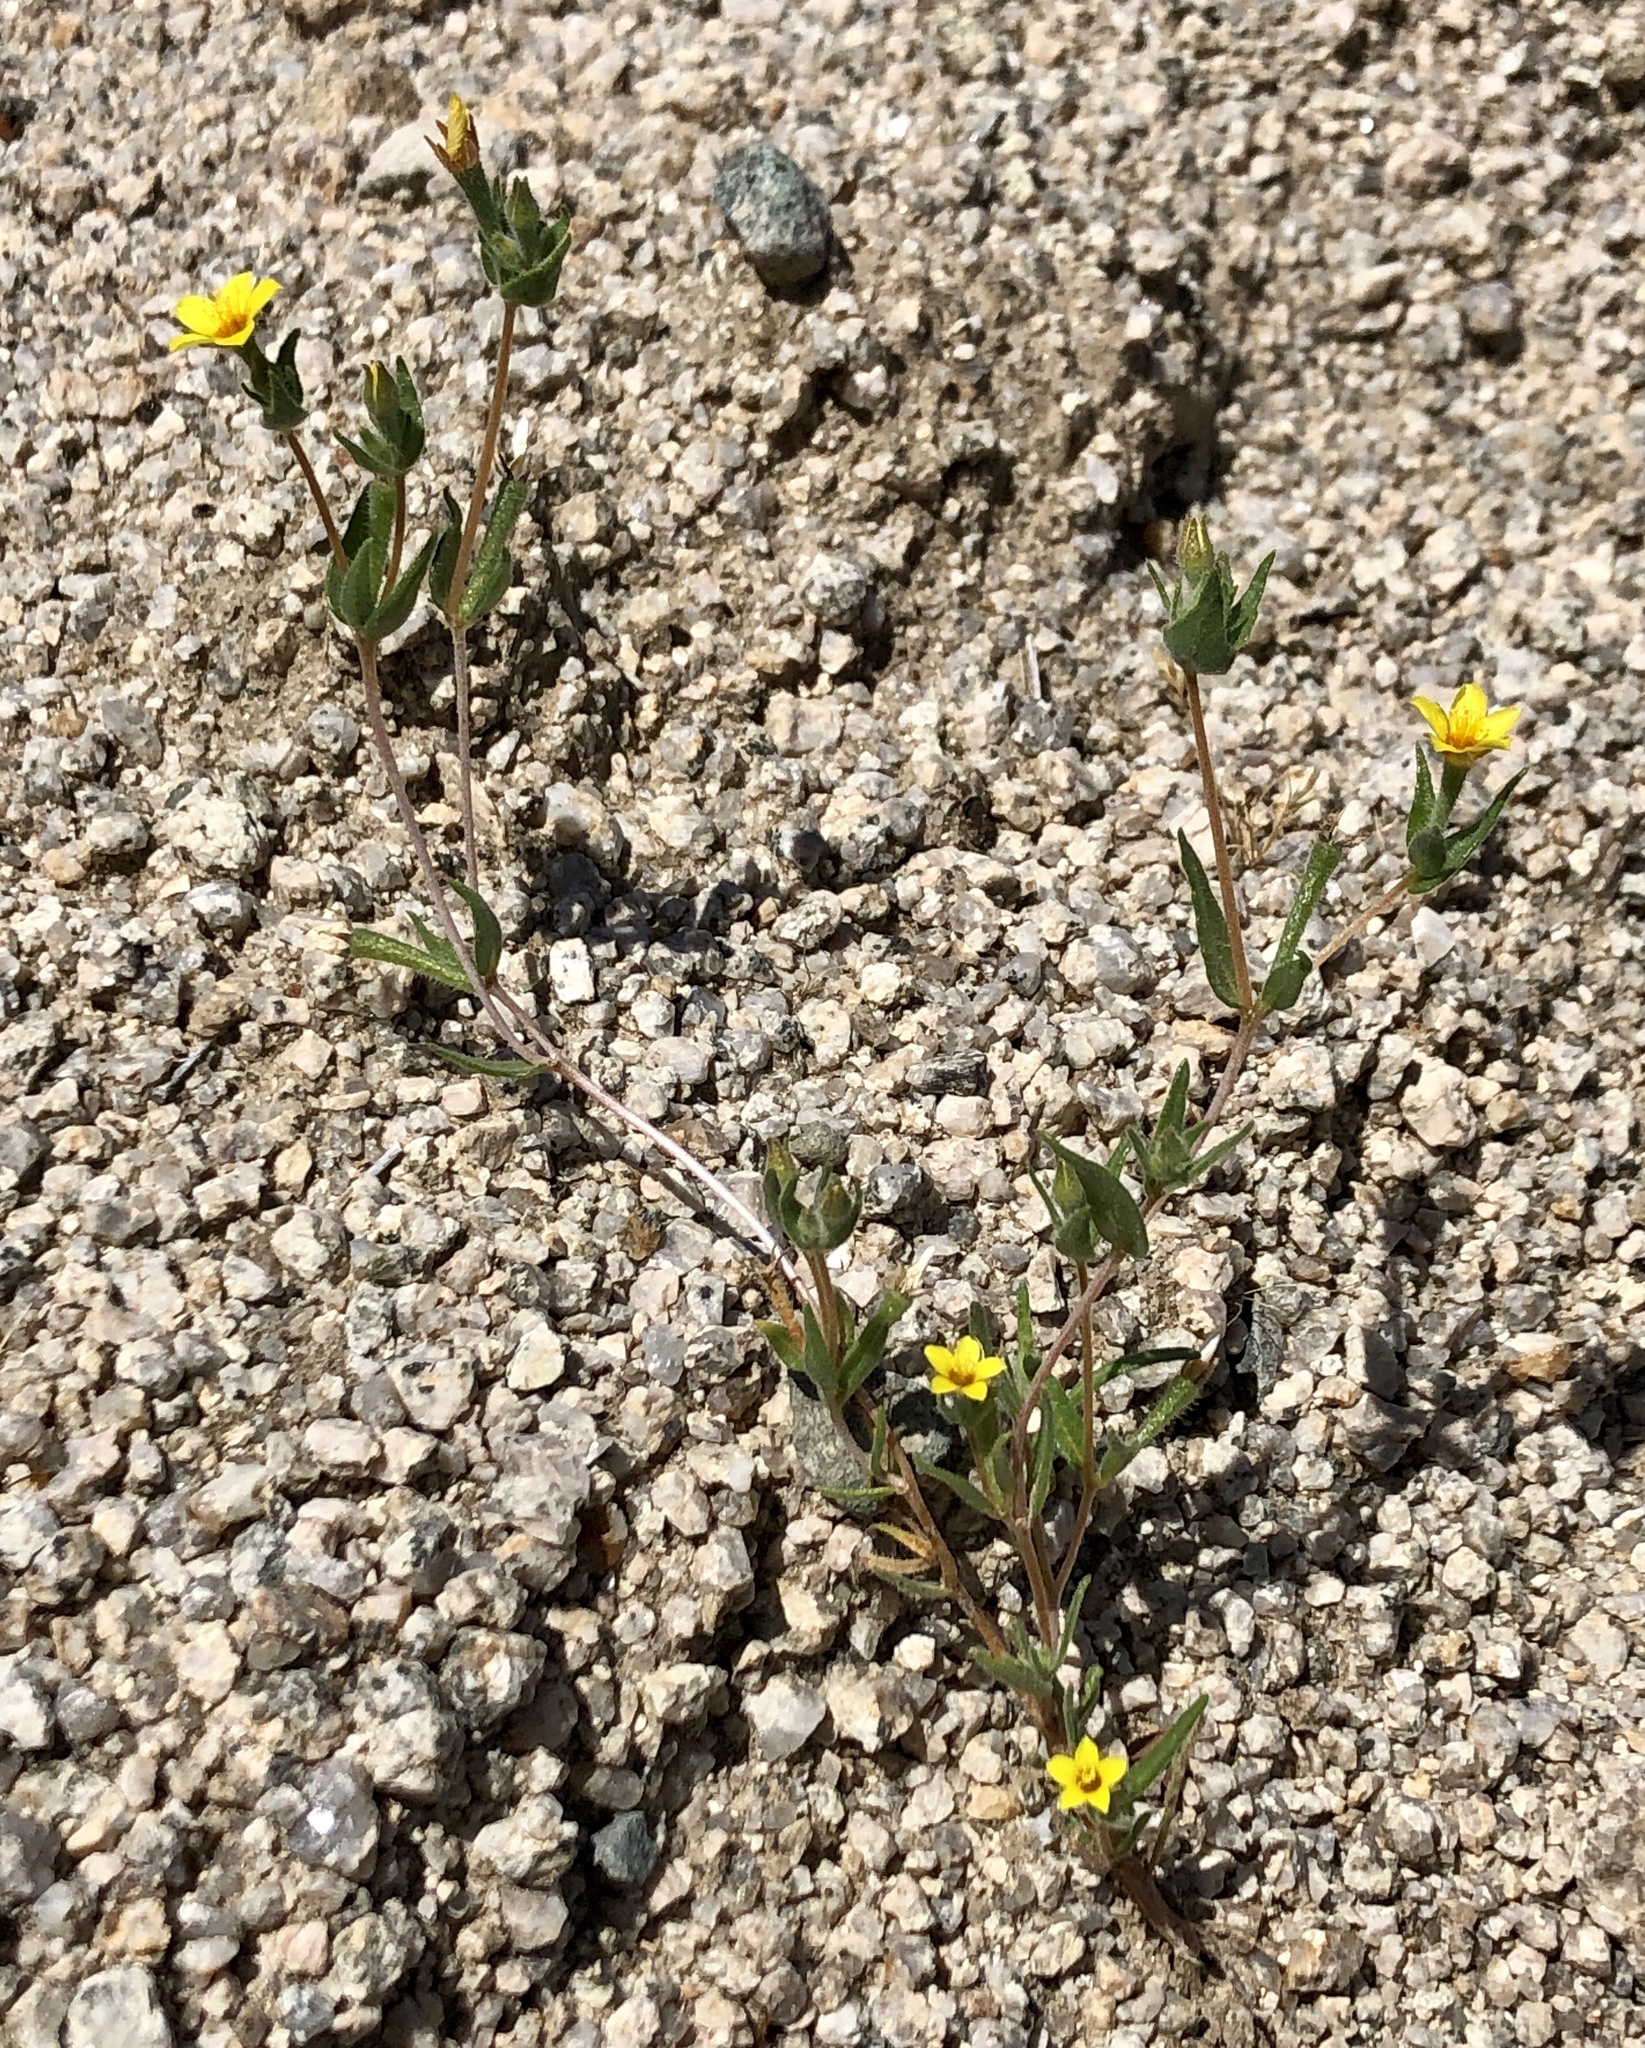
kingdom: Plantae
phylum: Tracheophyta
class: Magnoliopsida
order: Cornales
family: Loasaceae
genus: Mentzelia
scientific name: Mentzelia albicaulis
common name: White-stem blazingstar
